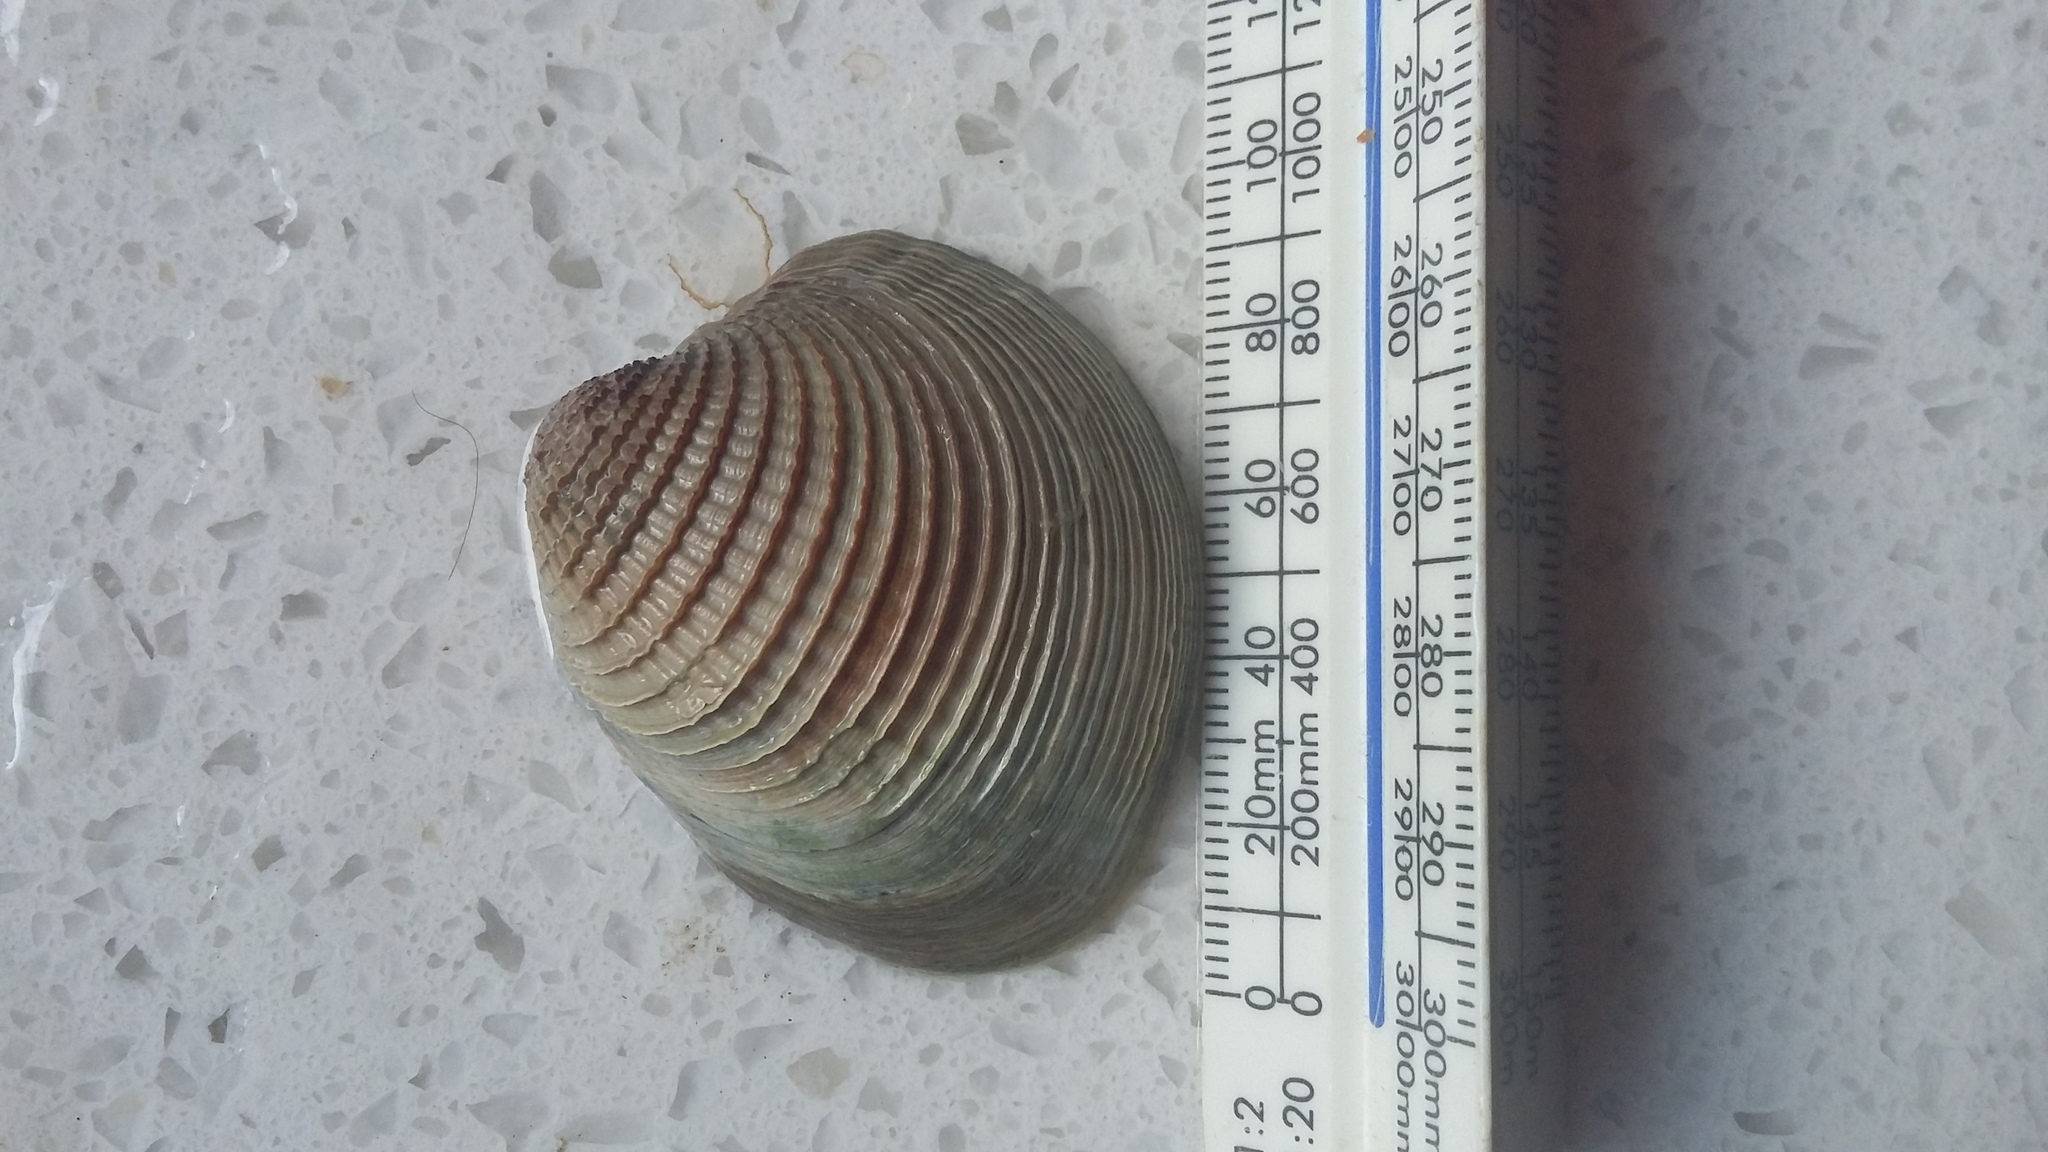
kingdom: Animalia
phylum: Mollusca
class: Bivalvia
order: Venerida
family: Veneridae
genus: Austrovenus
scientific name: Austrovenus stutchburyi
